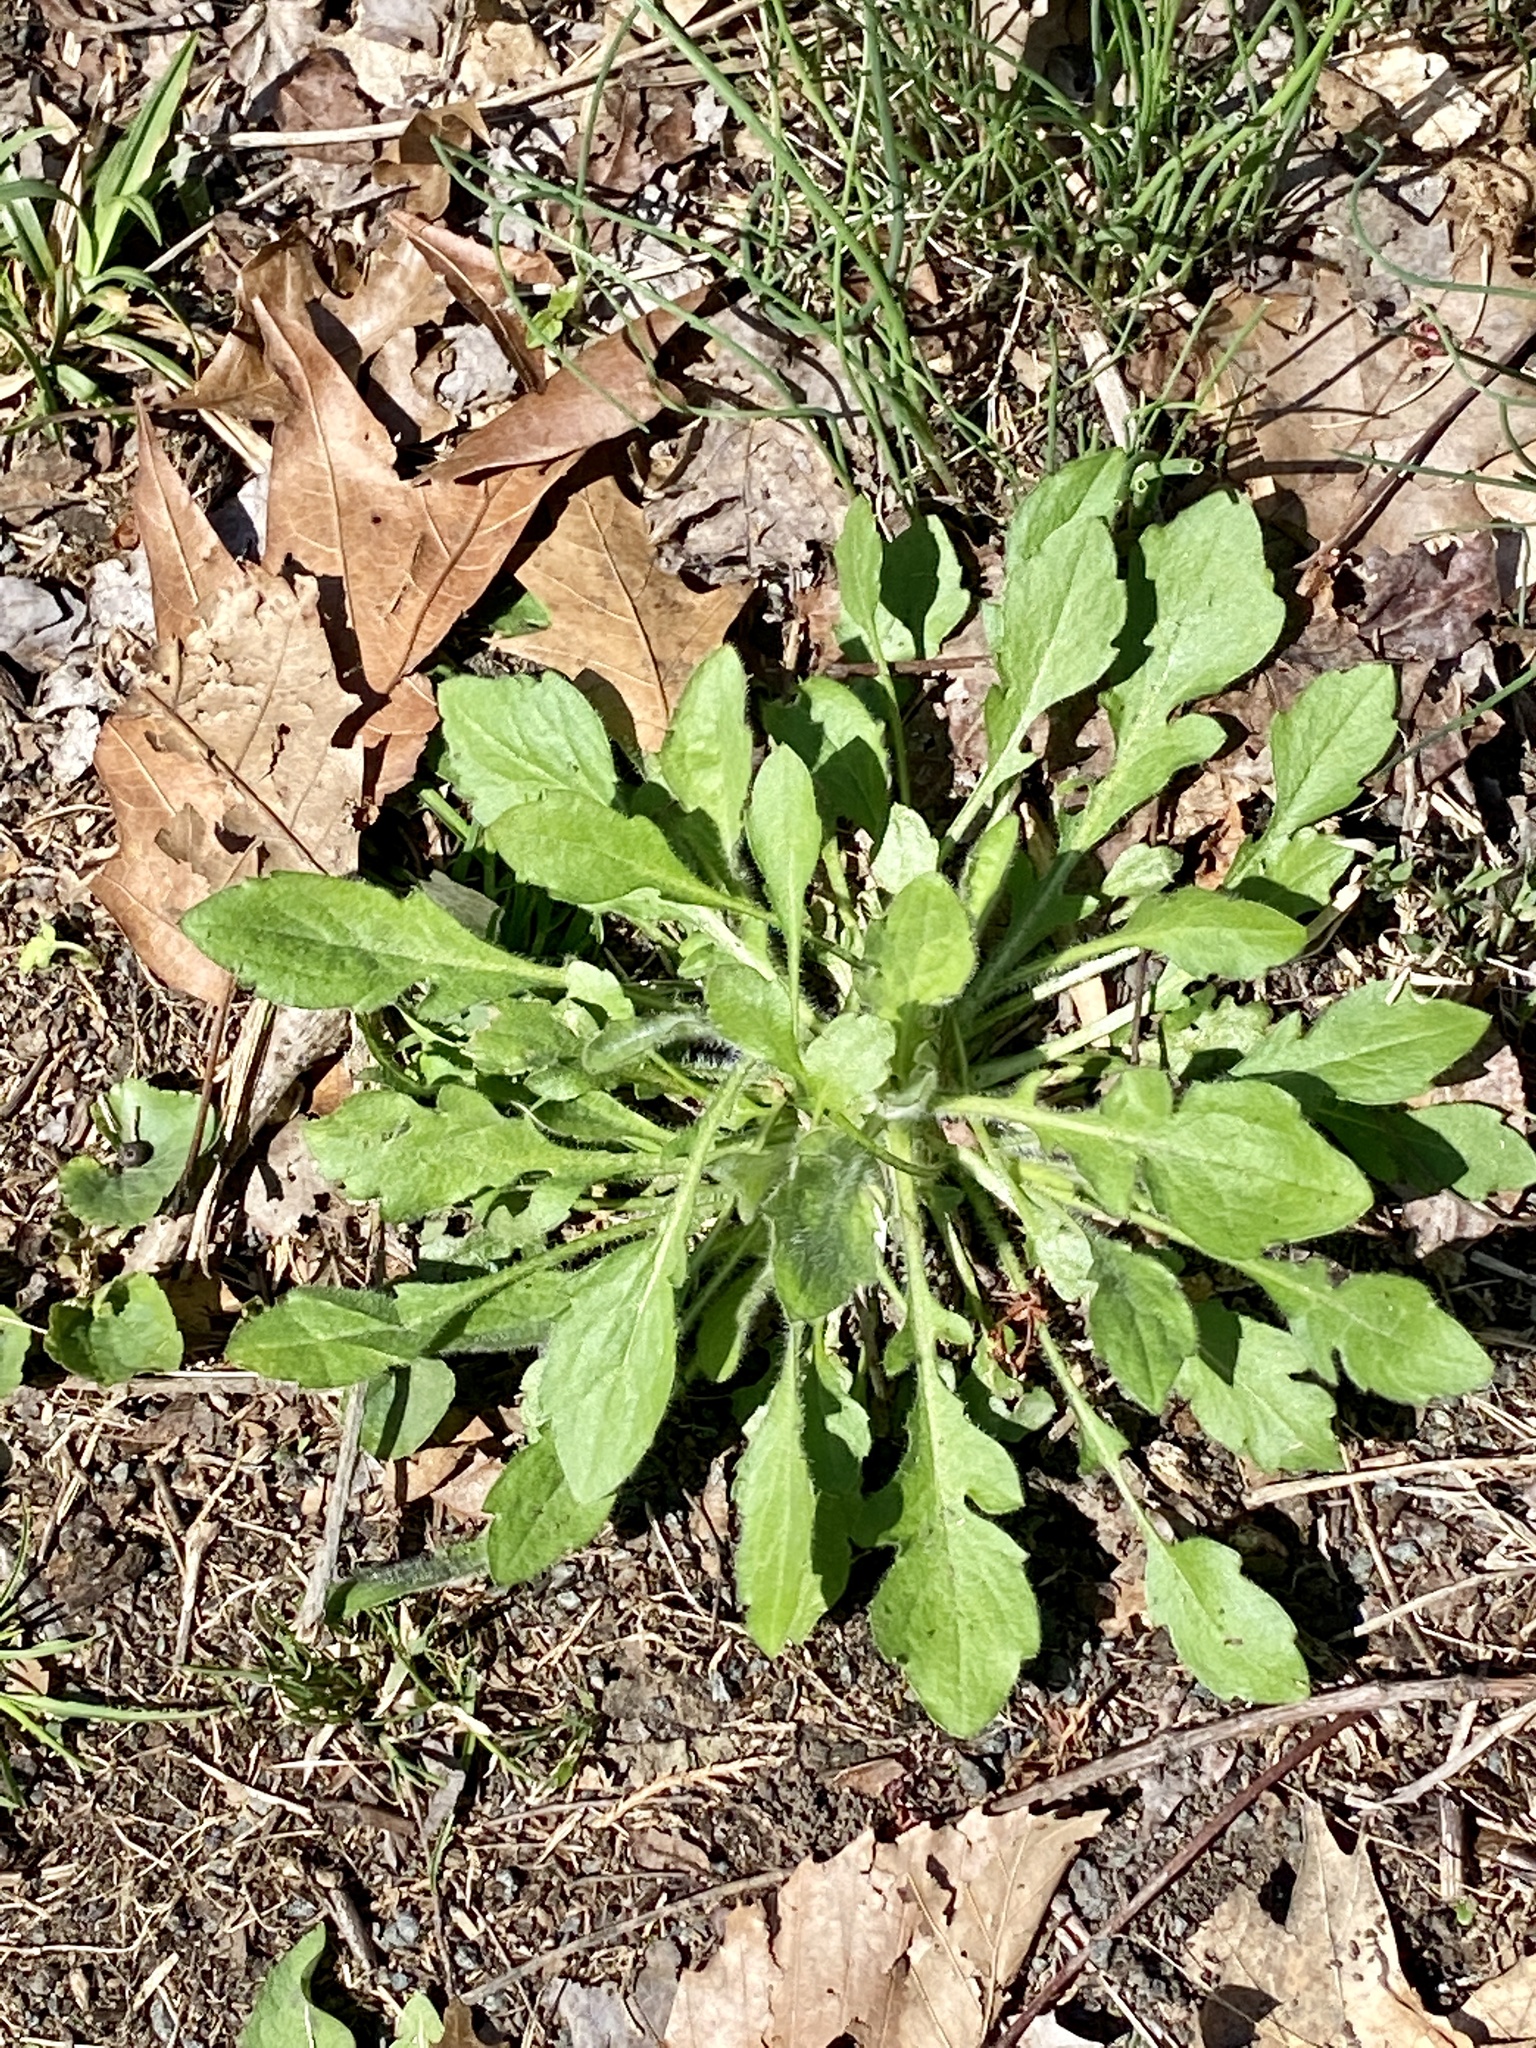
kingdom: Plantae
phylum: Tracheophyta
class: Magnoliopsida
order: Asterales
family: Asteraceae
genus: Erigeron
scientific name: Erigeron canadensis
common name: Canadian fleabane
